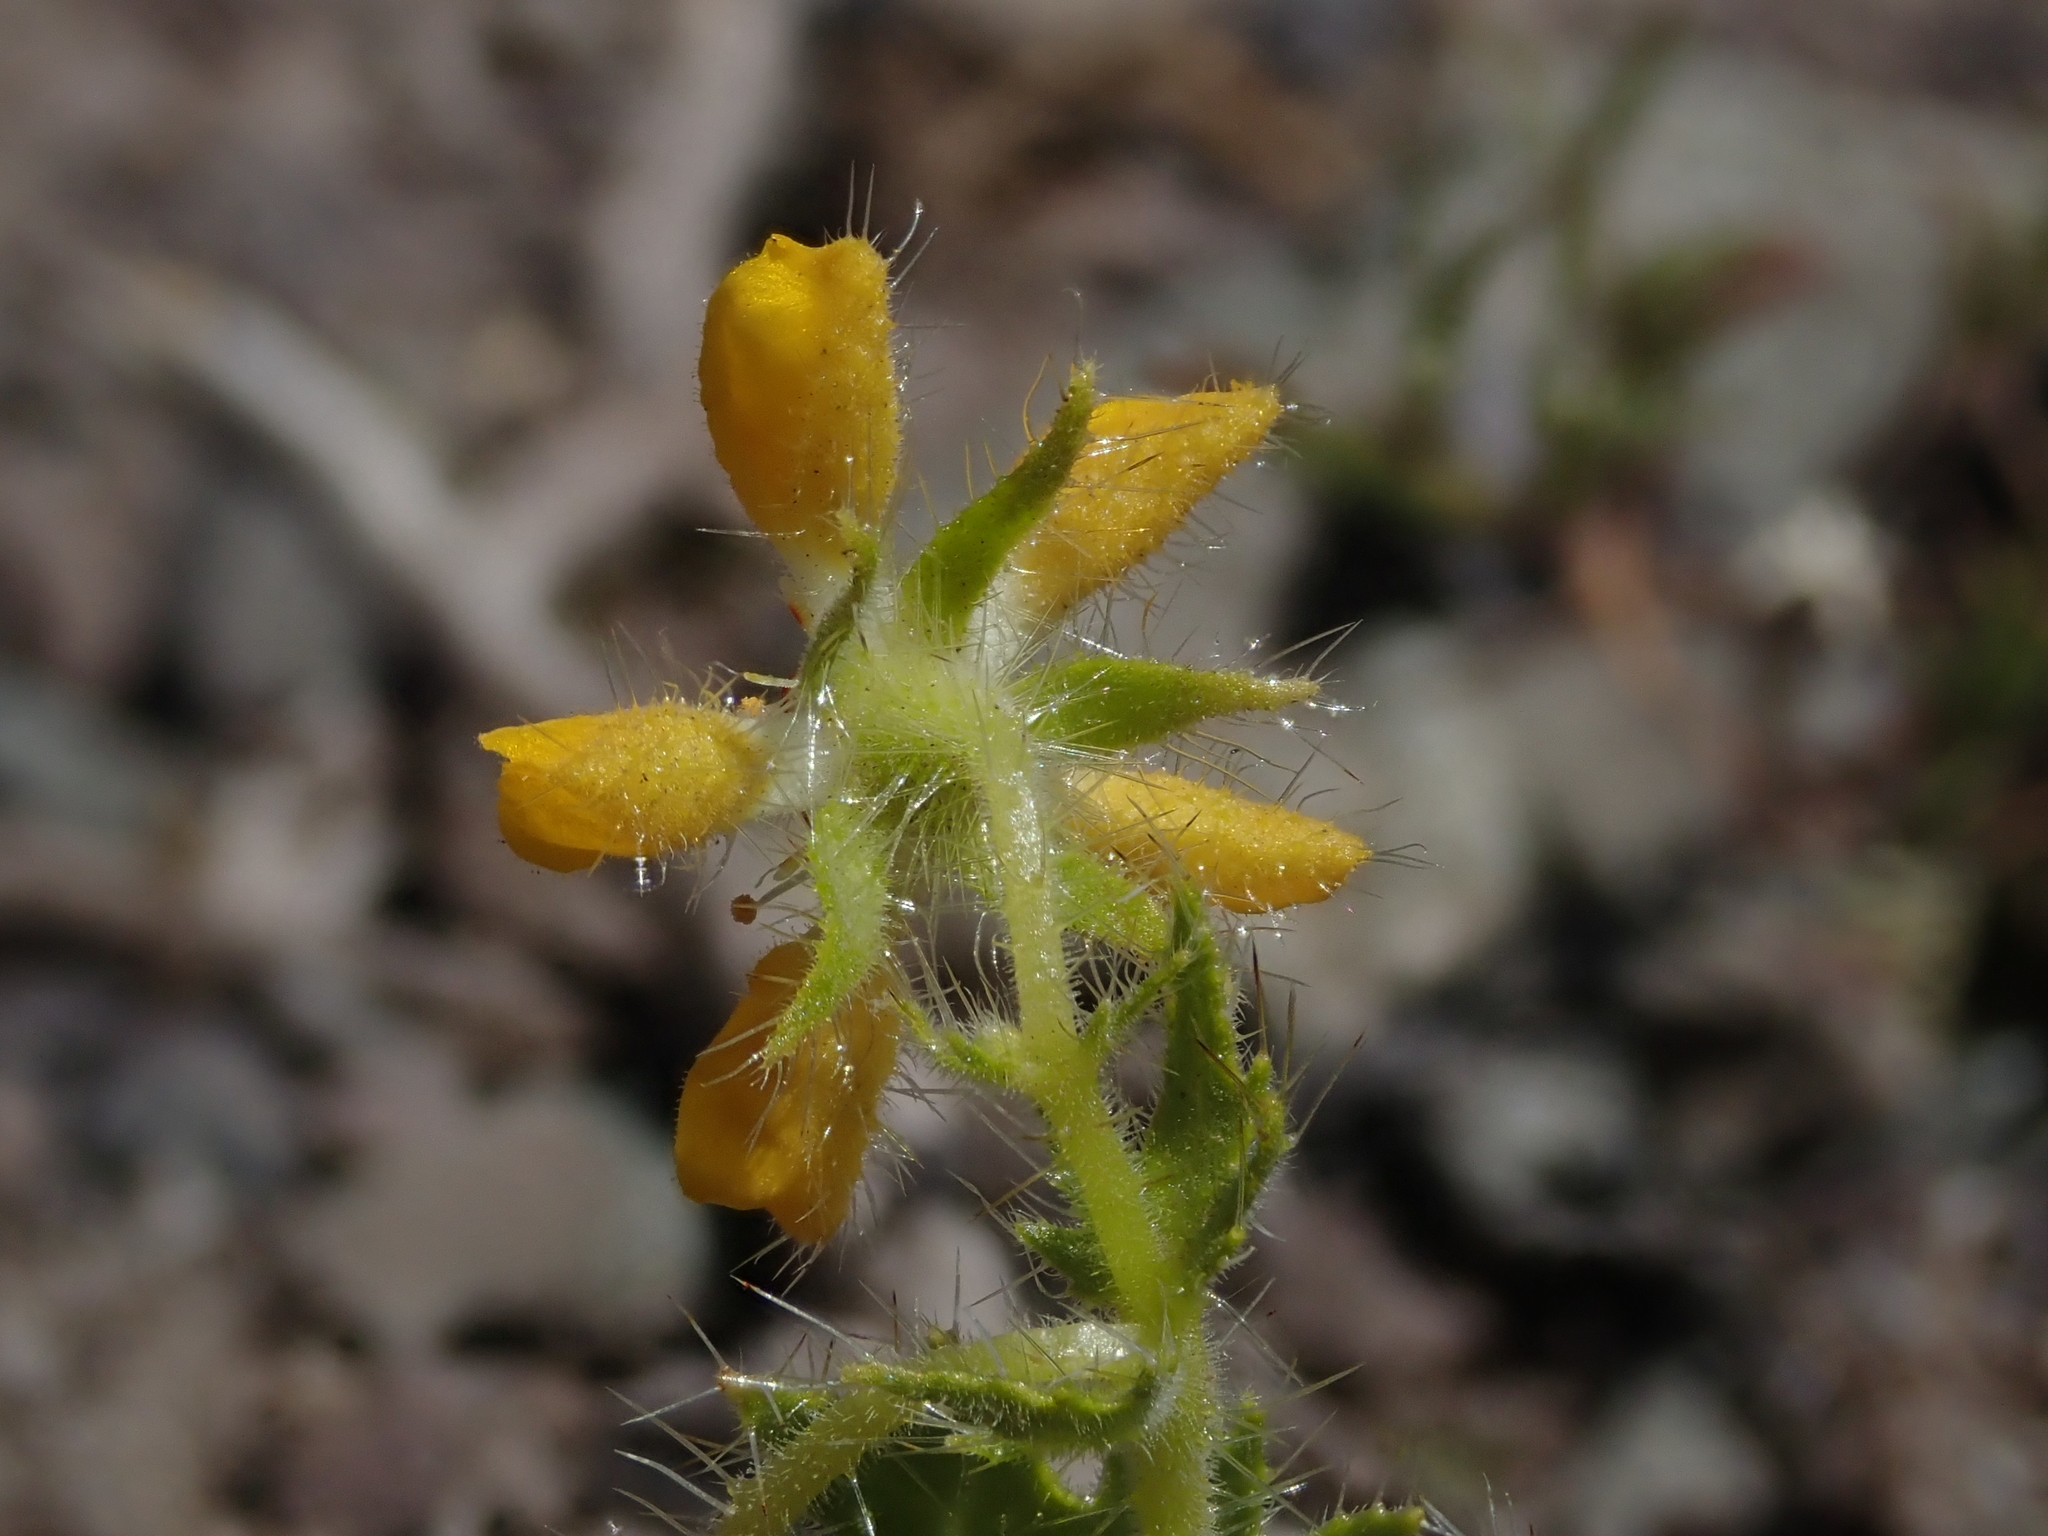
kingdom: Plantae
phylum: Tracheophyta
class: Magnoliopsida
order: Cornales
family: Loasaceae
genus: Loasa
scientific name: Loasa insons
